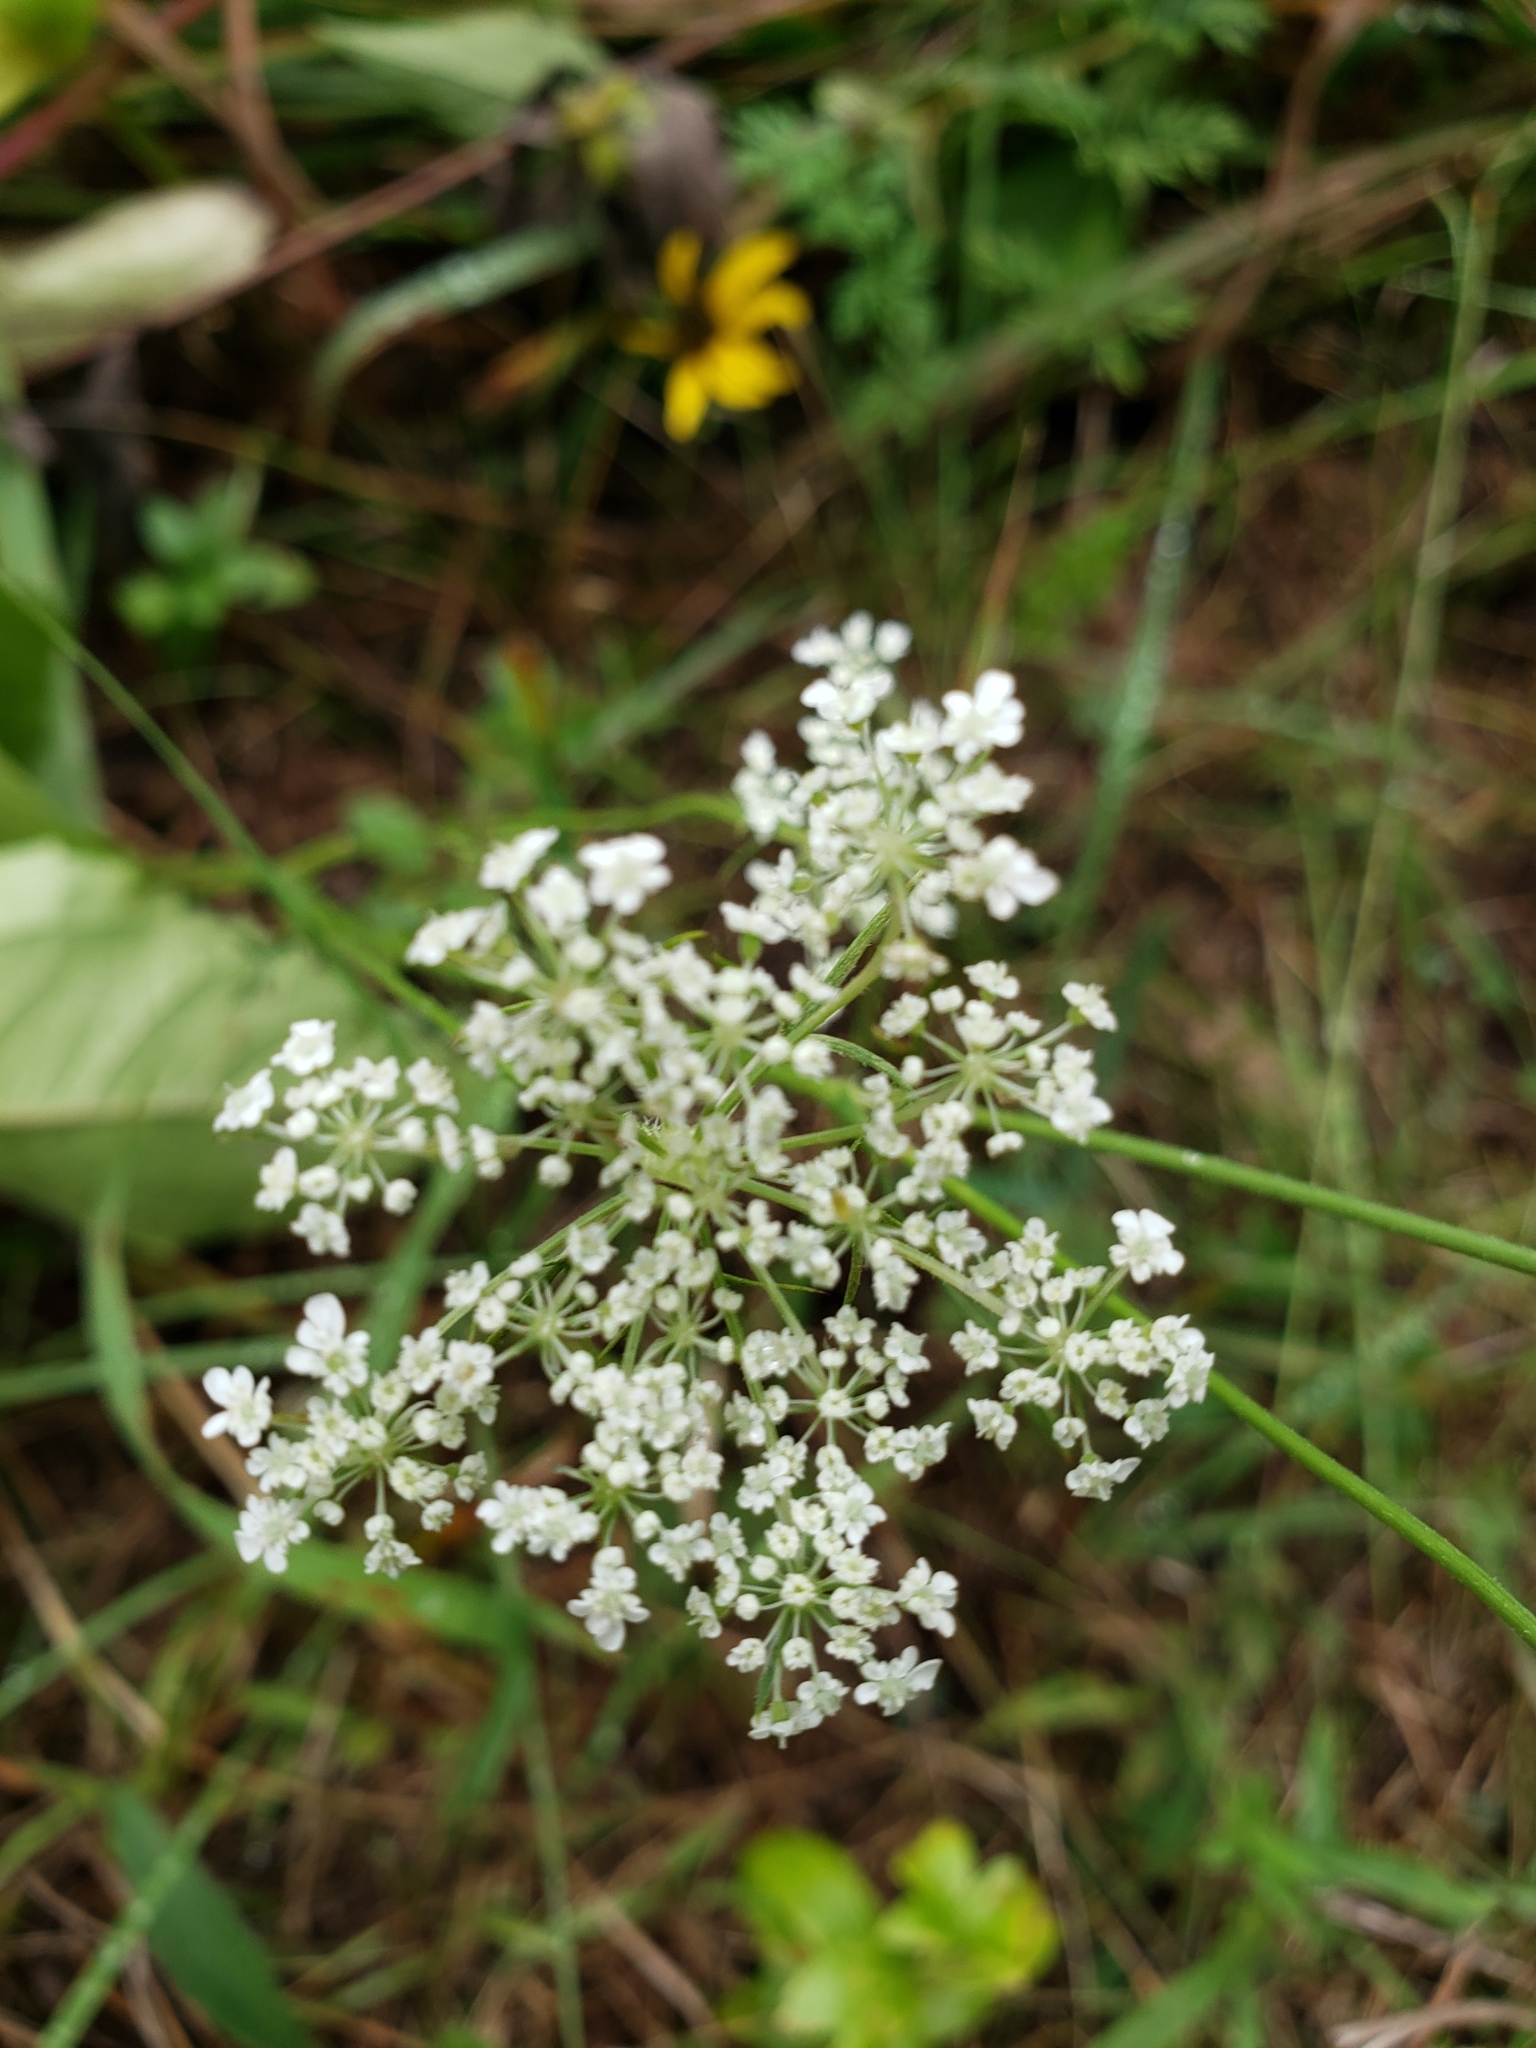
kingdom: Plantae
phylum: Tracheophyta
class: Magnoliopsida
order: Apiales
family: Apiaceae
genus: Daucus
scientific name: Daucus carota
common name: Wild carrot
